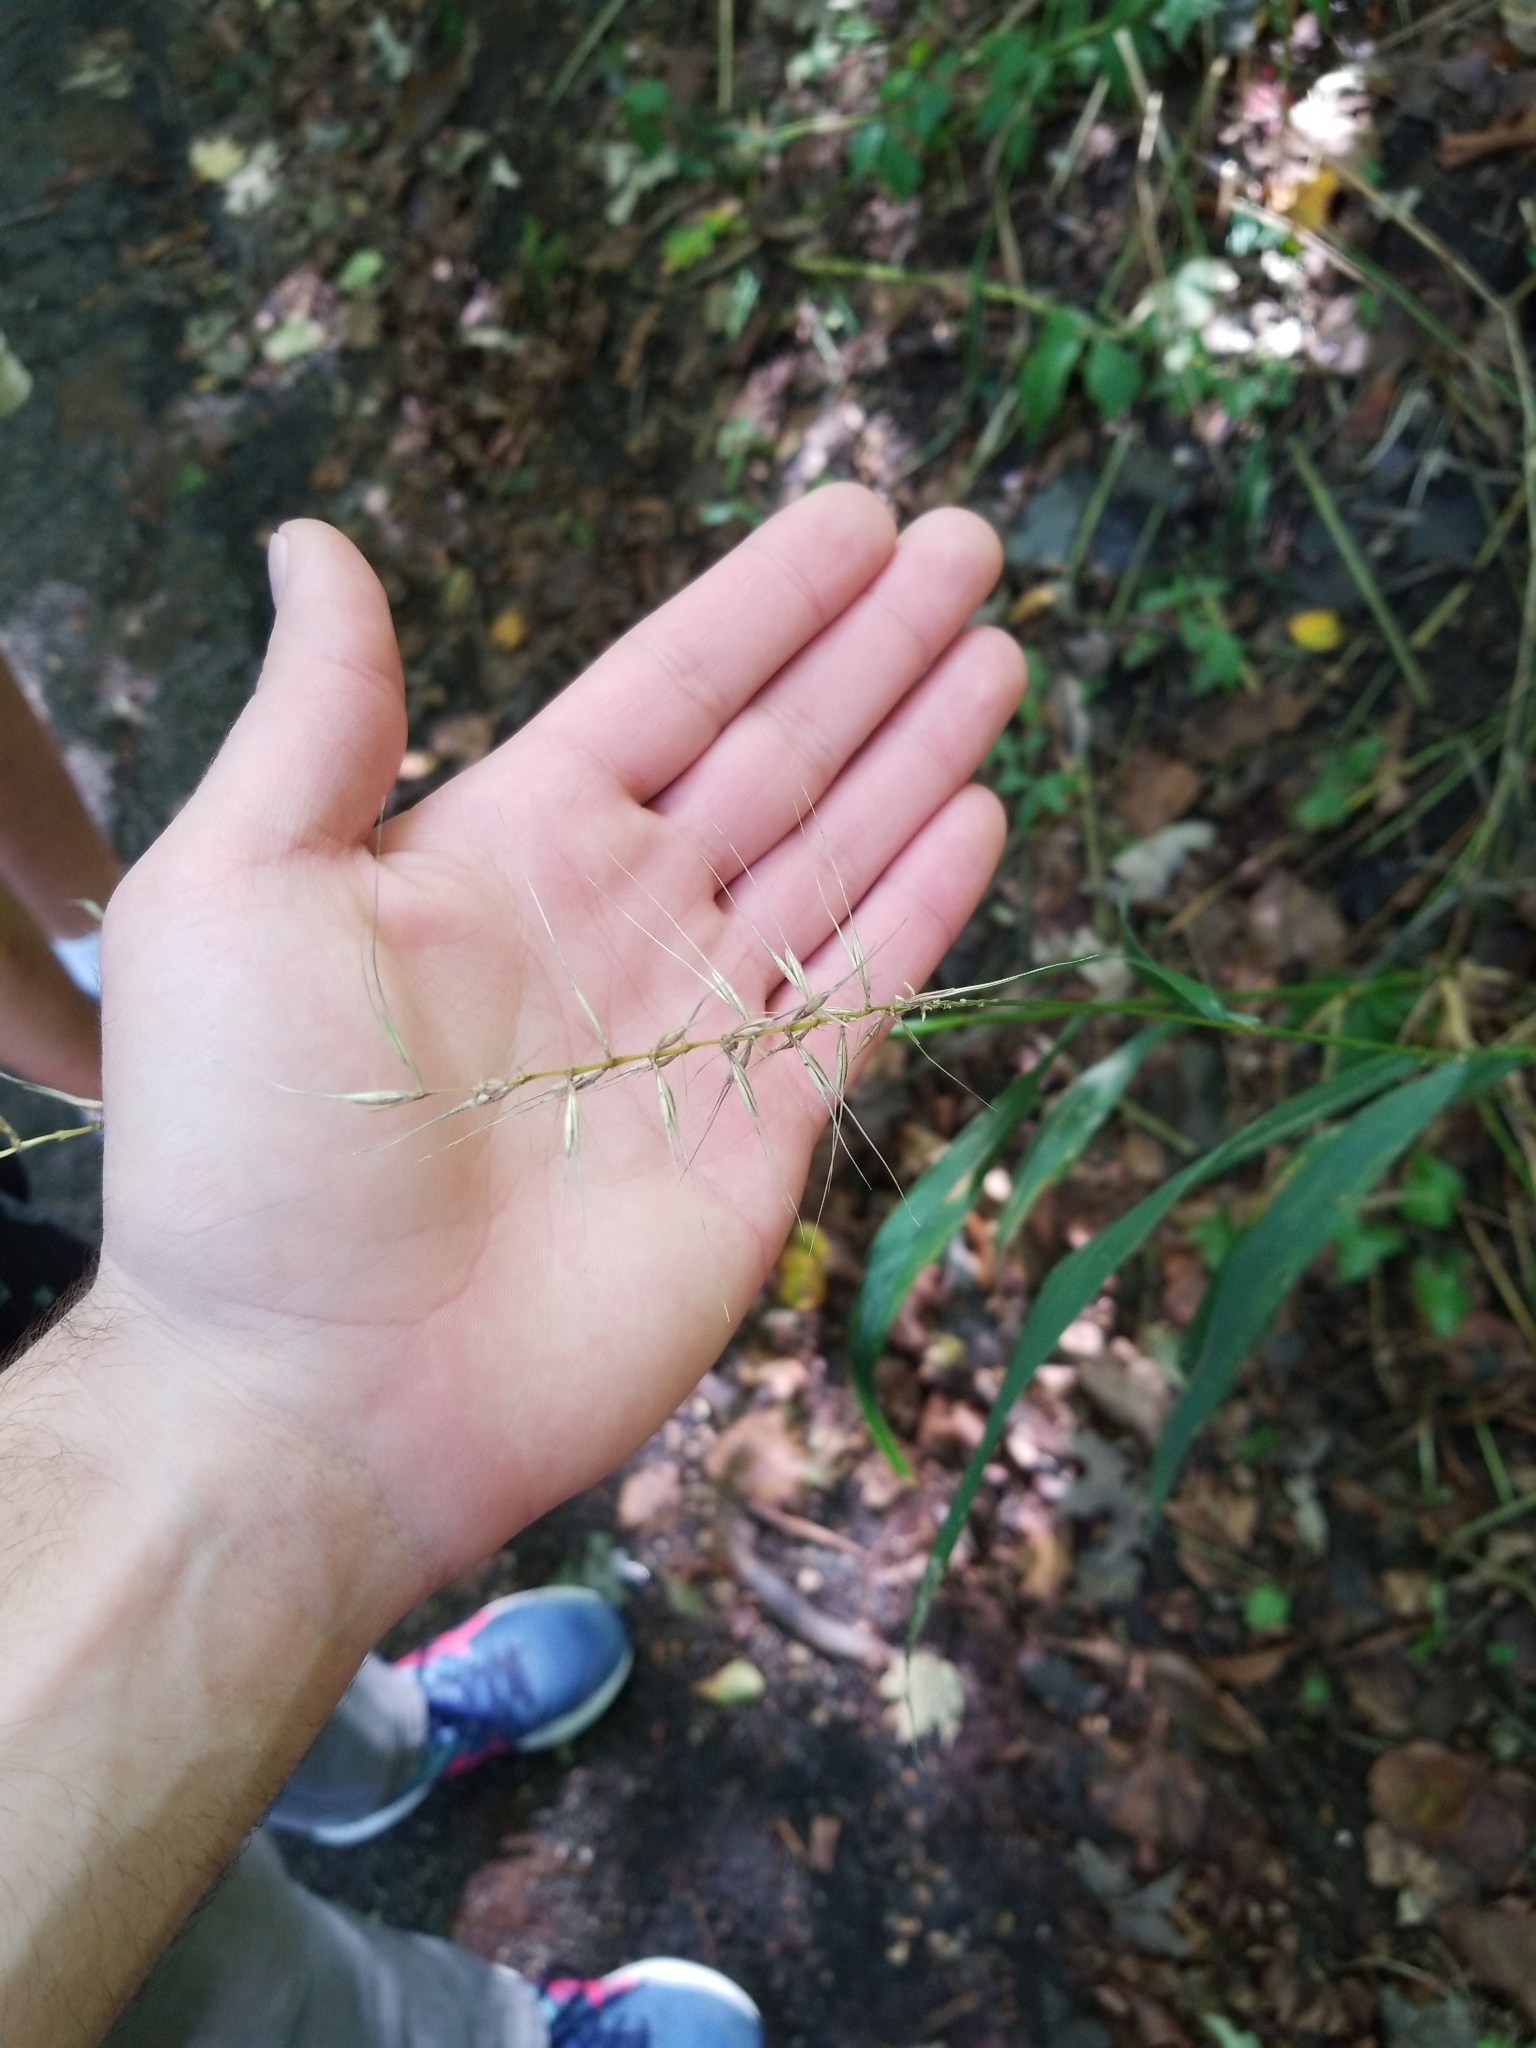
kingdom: Plantae
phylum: Tracheophyta
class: Liliopsida
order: Poales
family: Poaceae
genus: Elymus
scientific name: Elymus hystrix
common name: Bottlebrush grass
